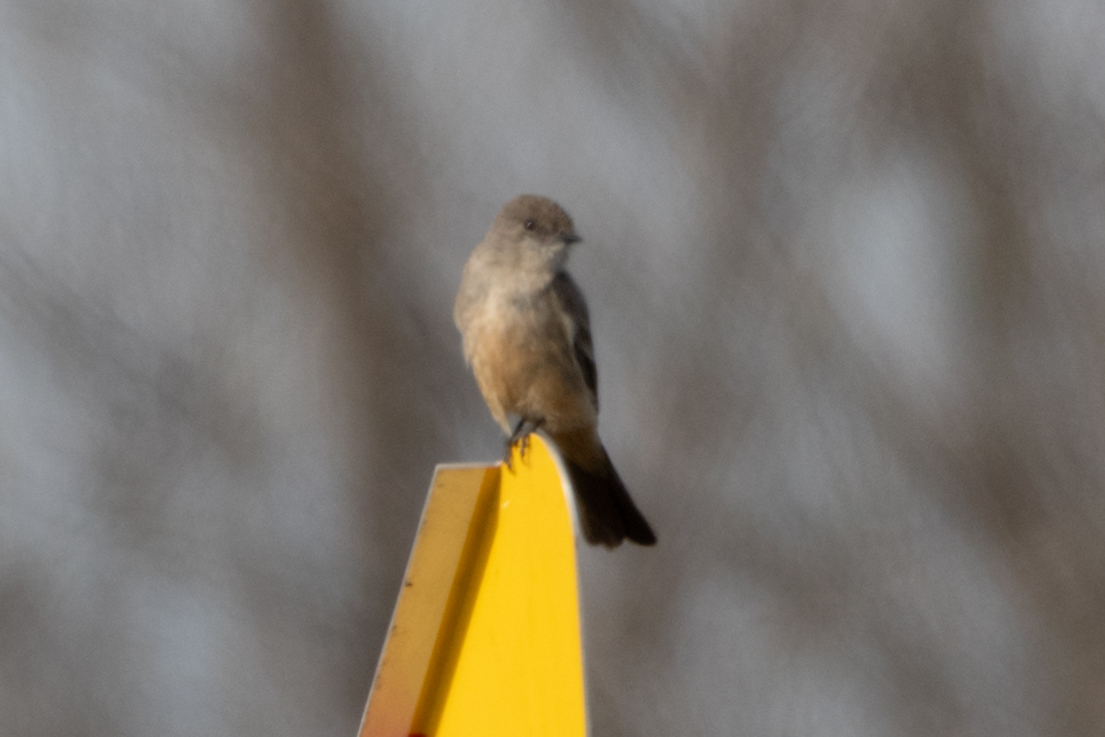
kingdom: Animalia
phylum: Chordata
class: Aves
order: Passeriformes
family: Tyrannidae
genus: Sayornis
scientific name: Sayornis saya
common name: Say's phoebe
